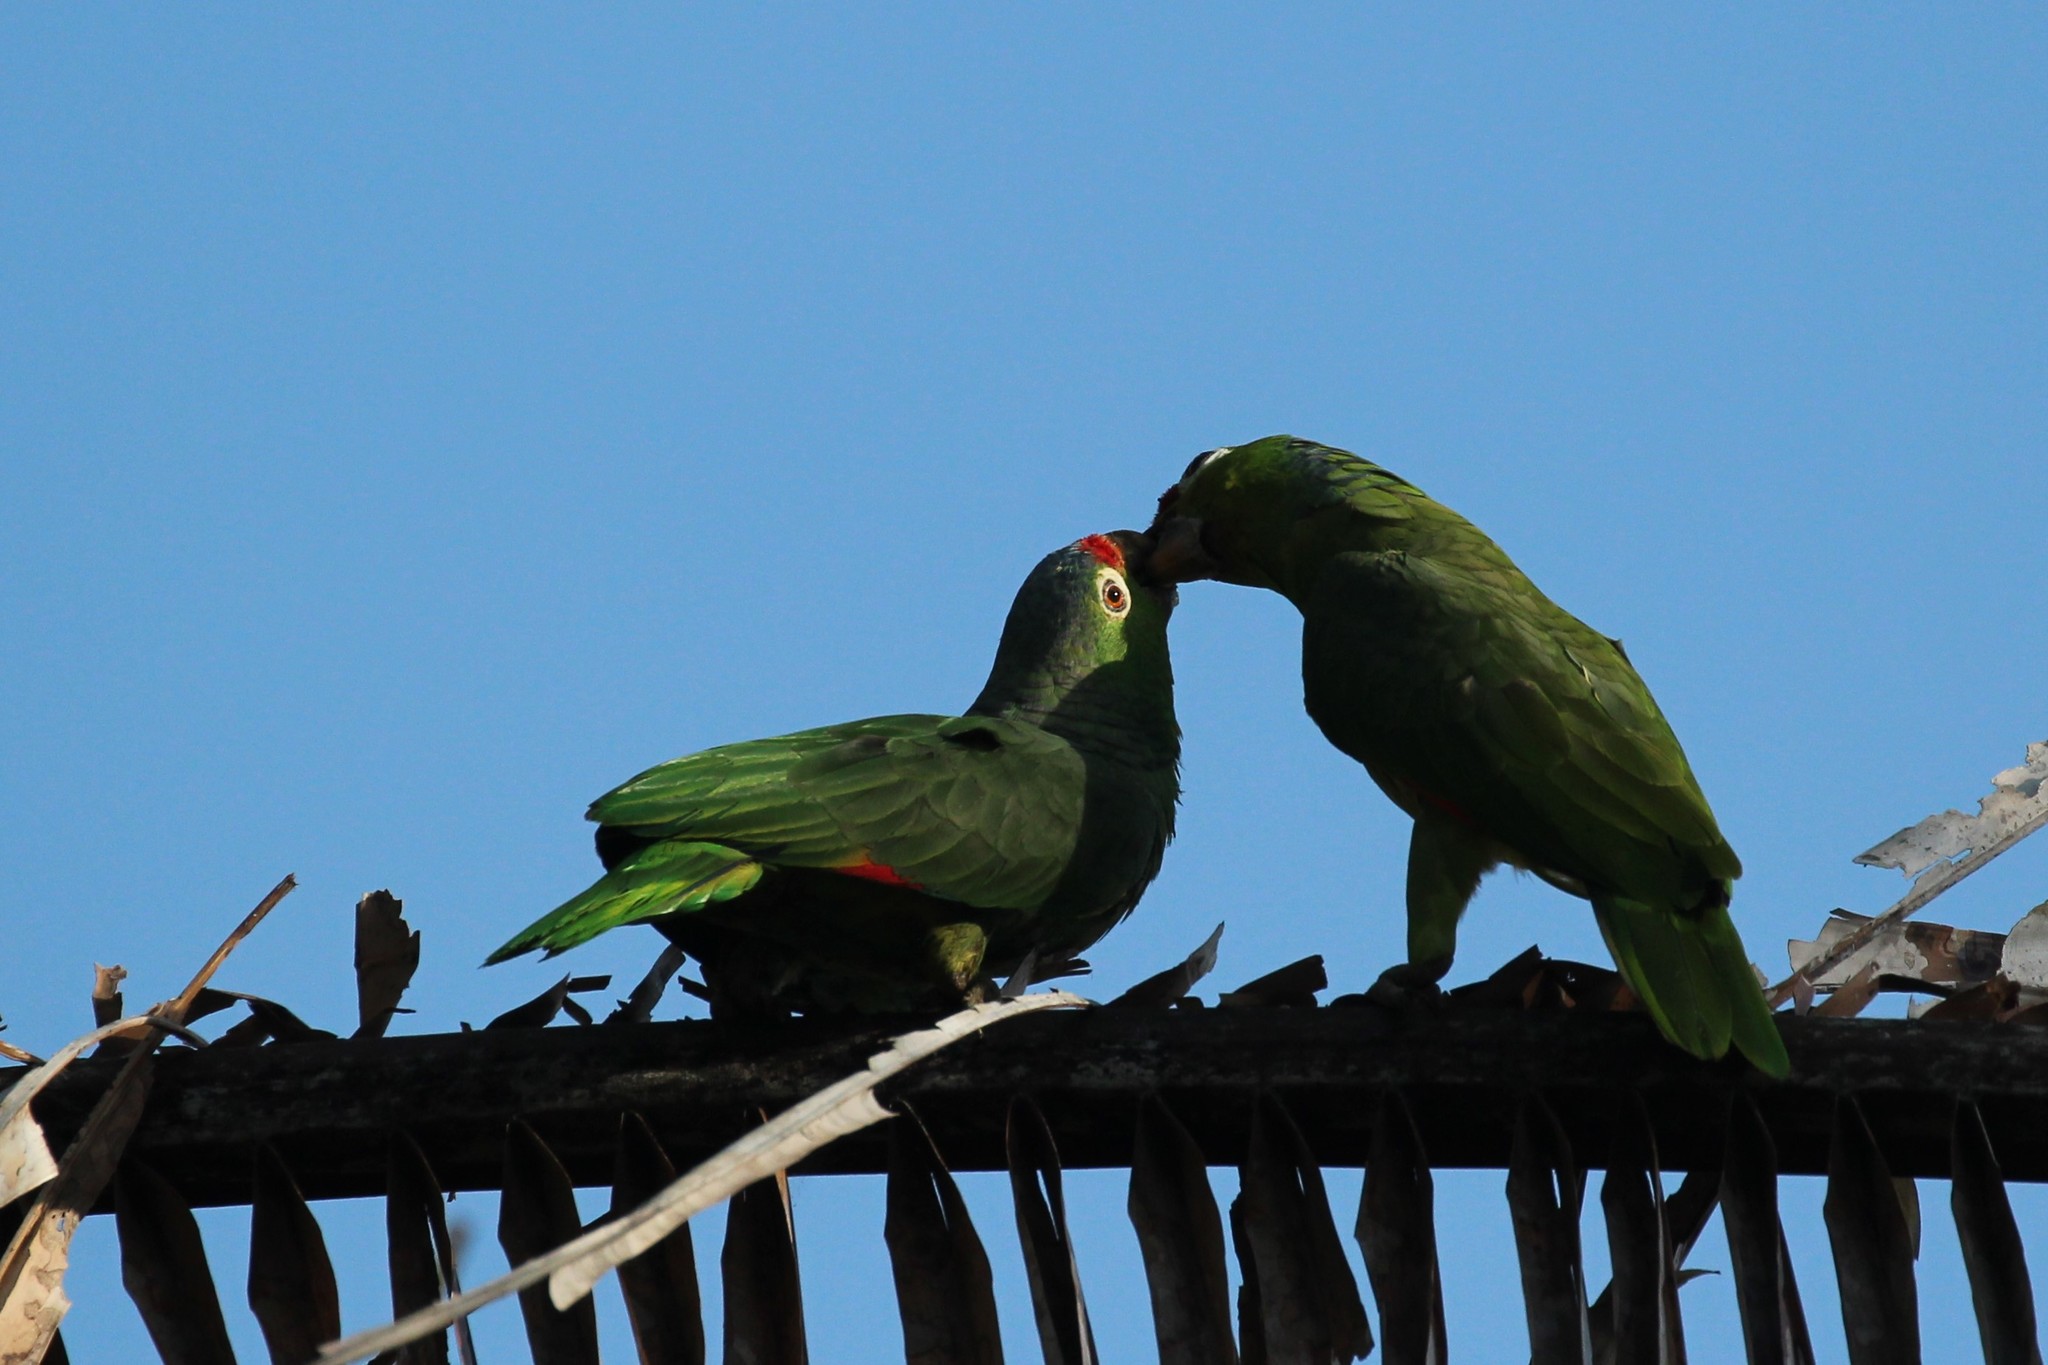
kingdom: Animalia
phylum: Chordata
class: Aves
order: Psittaciformes
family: Psittacidae
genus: Amazona
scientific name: Amazona autumnalis
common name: Red-lored amazon
